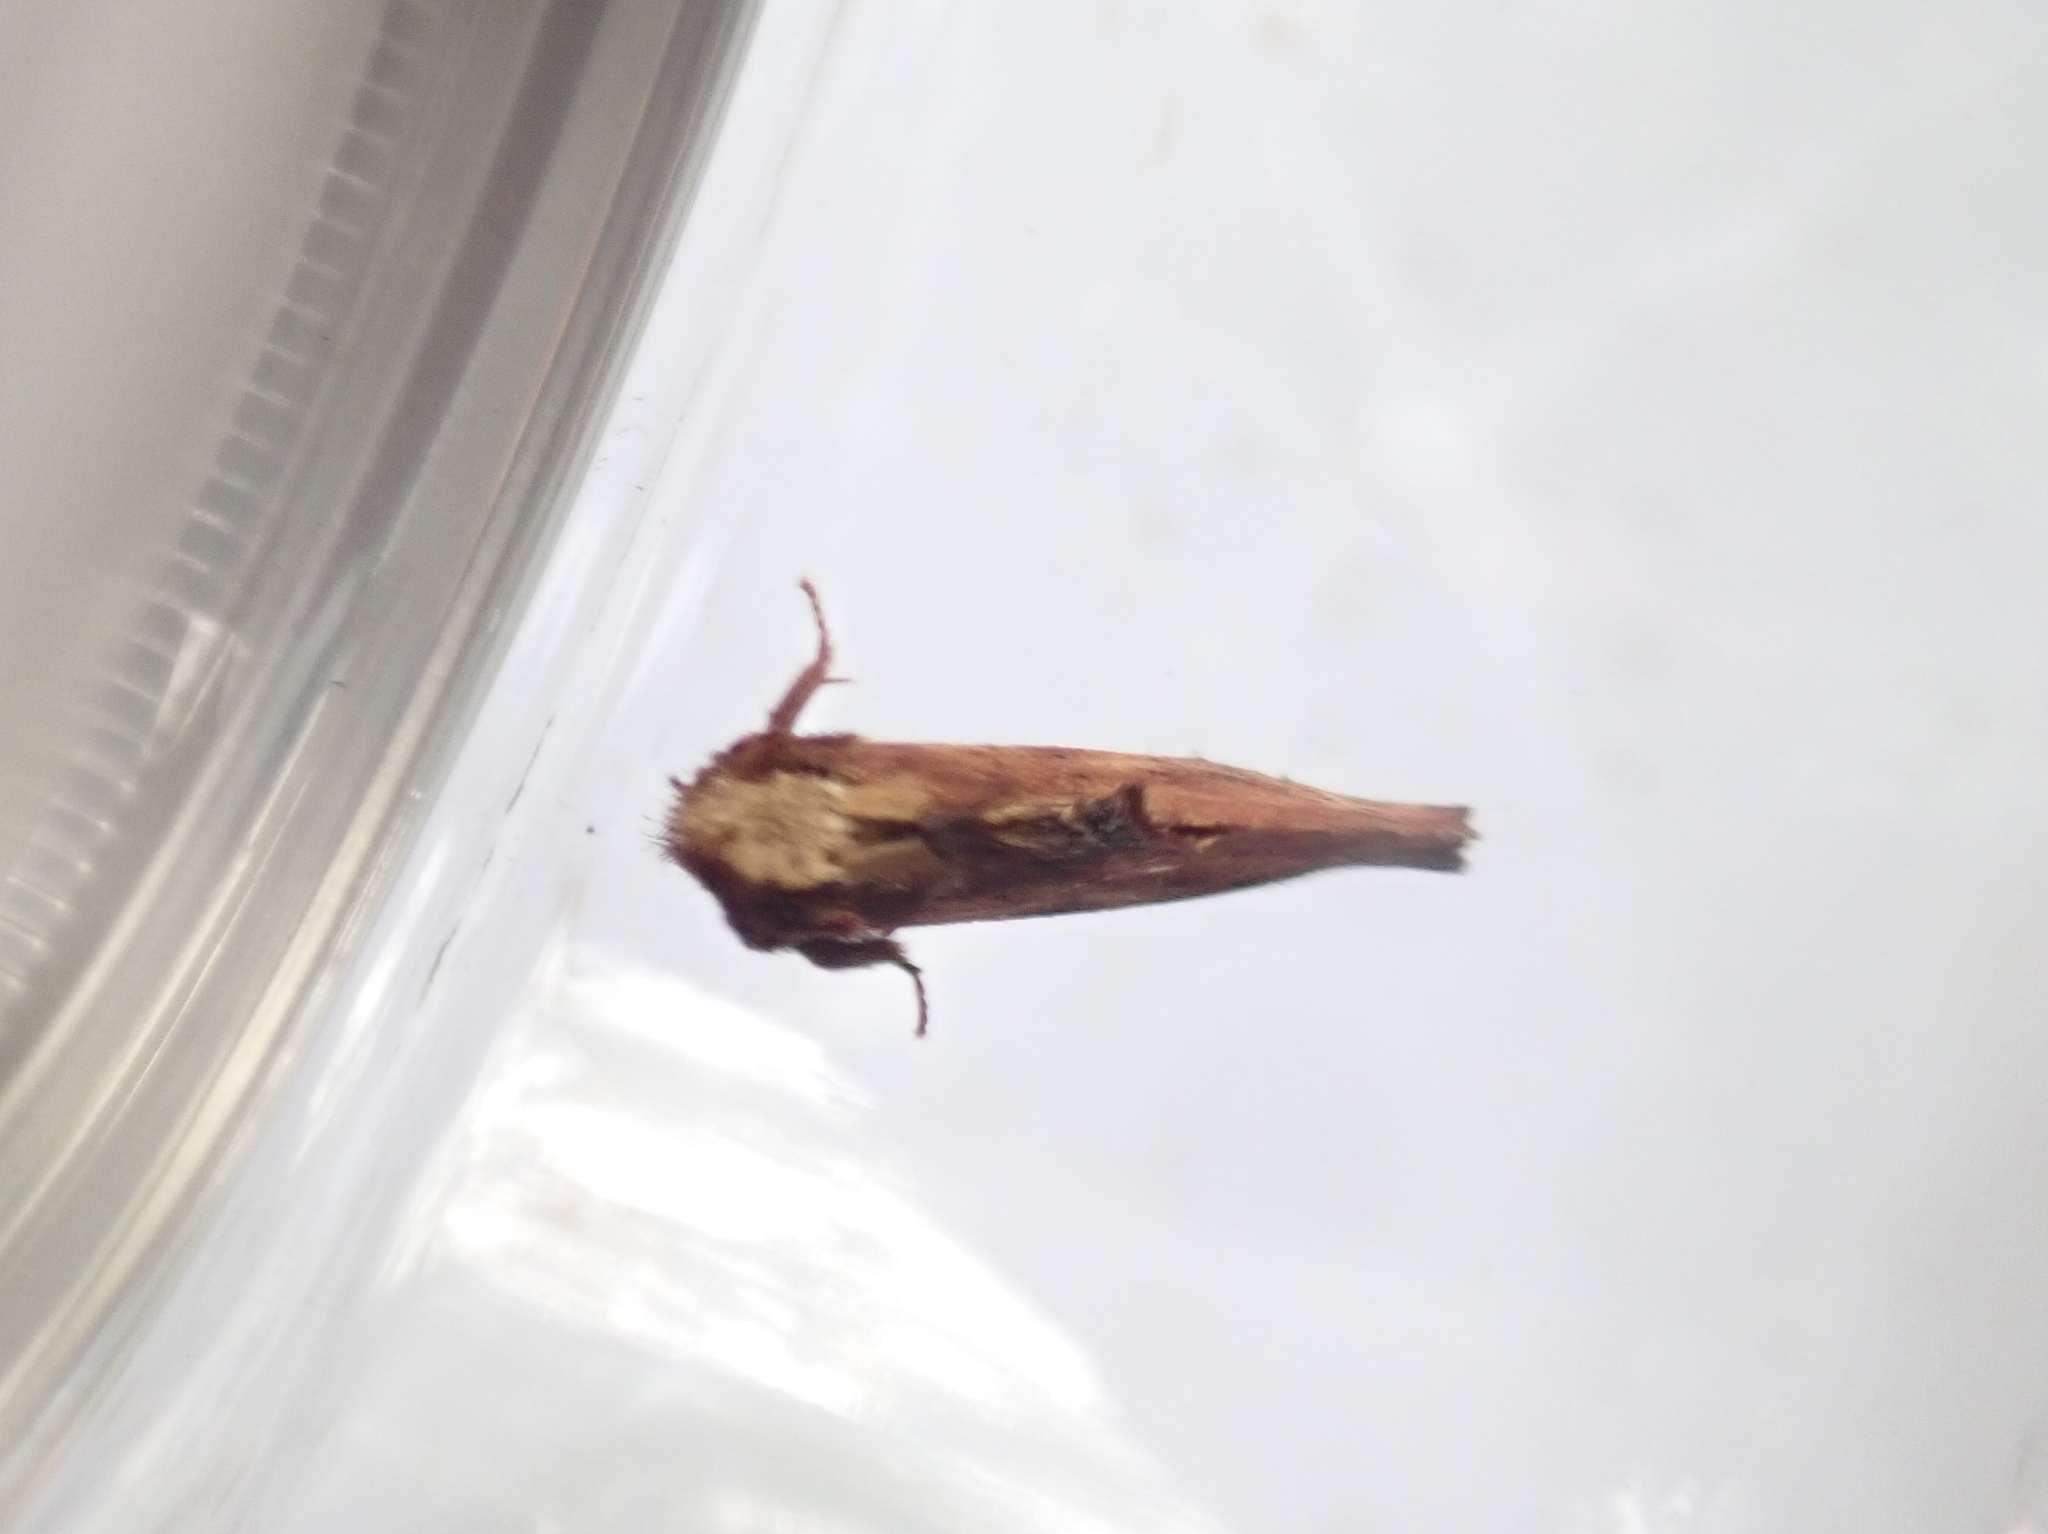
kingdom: Animalia
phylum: Arthropoda
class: Insecta
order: Lepidoptera
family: Notodontidae
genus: Ptilodon
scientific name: Ptilodon capucina
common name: Coxcomb prominent
